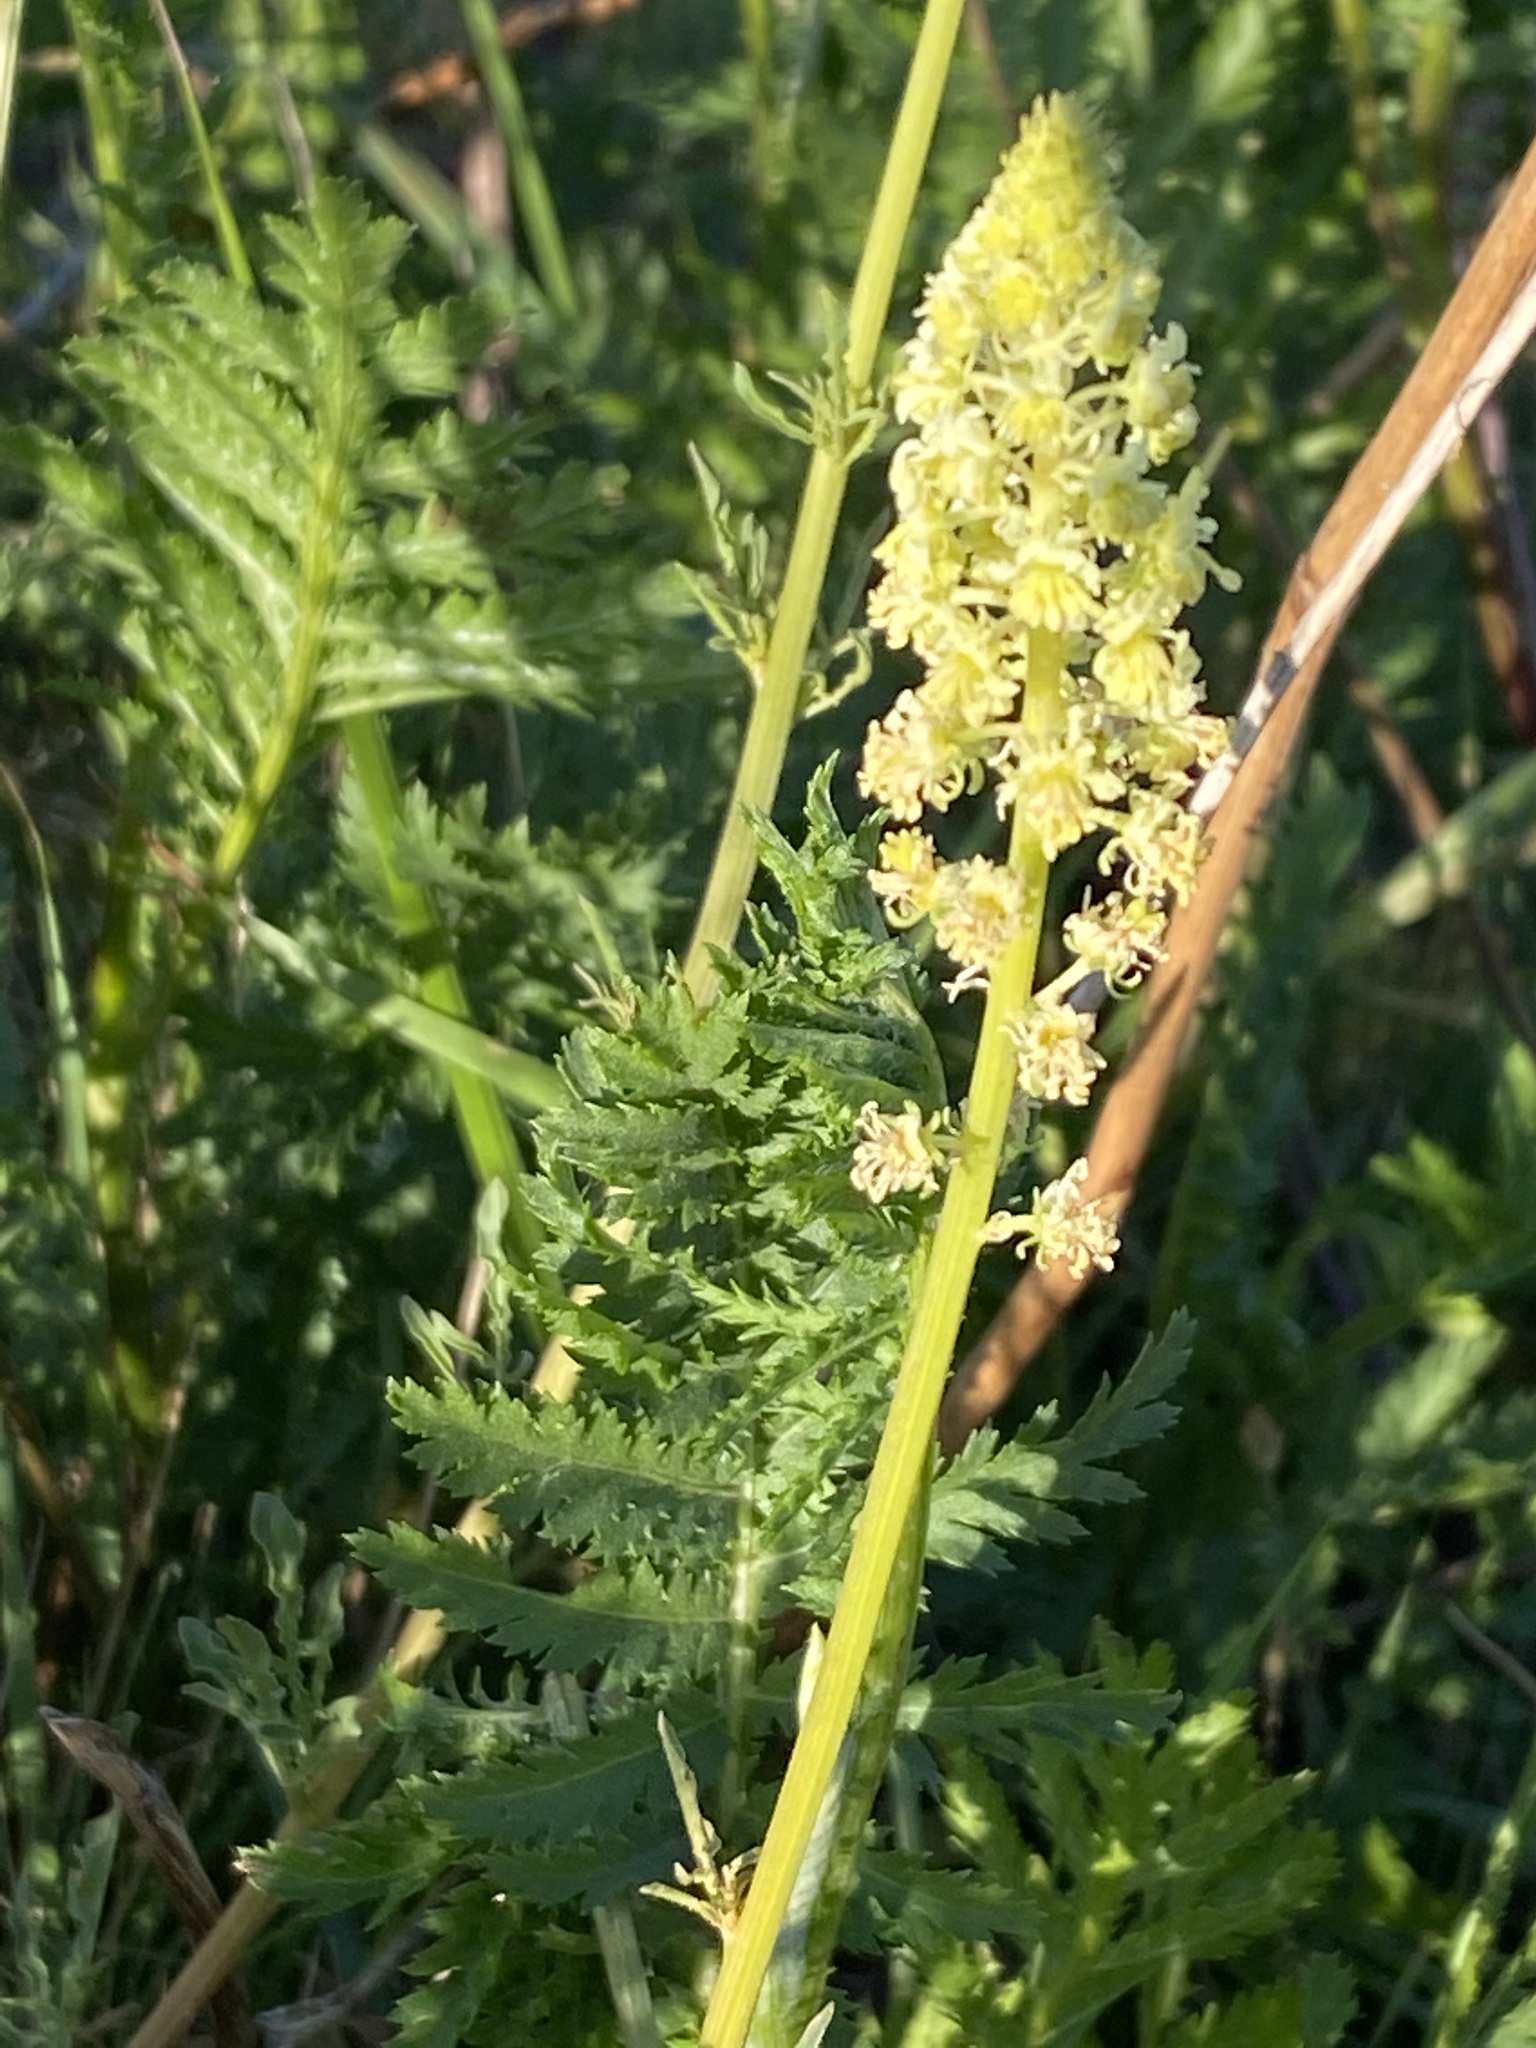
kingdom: Plantae
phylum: Tracheophyta
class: Magnoliopsida
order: Brassicales
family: Resedaceae
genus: Reseda
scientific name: Reseda lutea
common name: Wild mignonette
